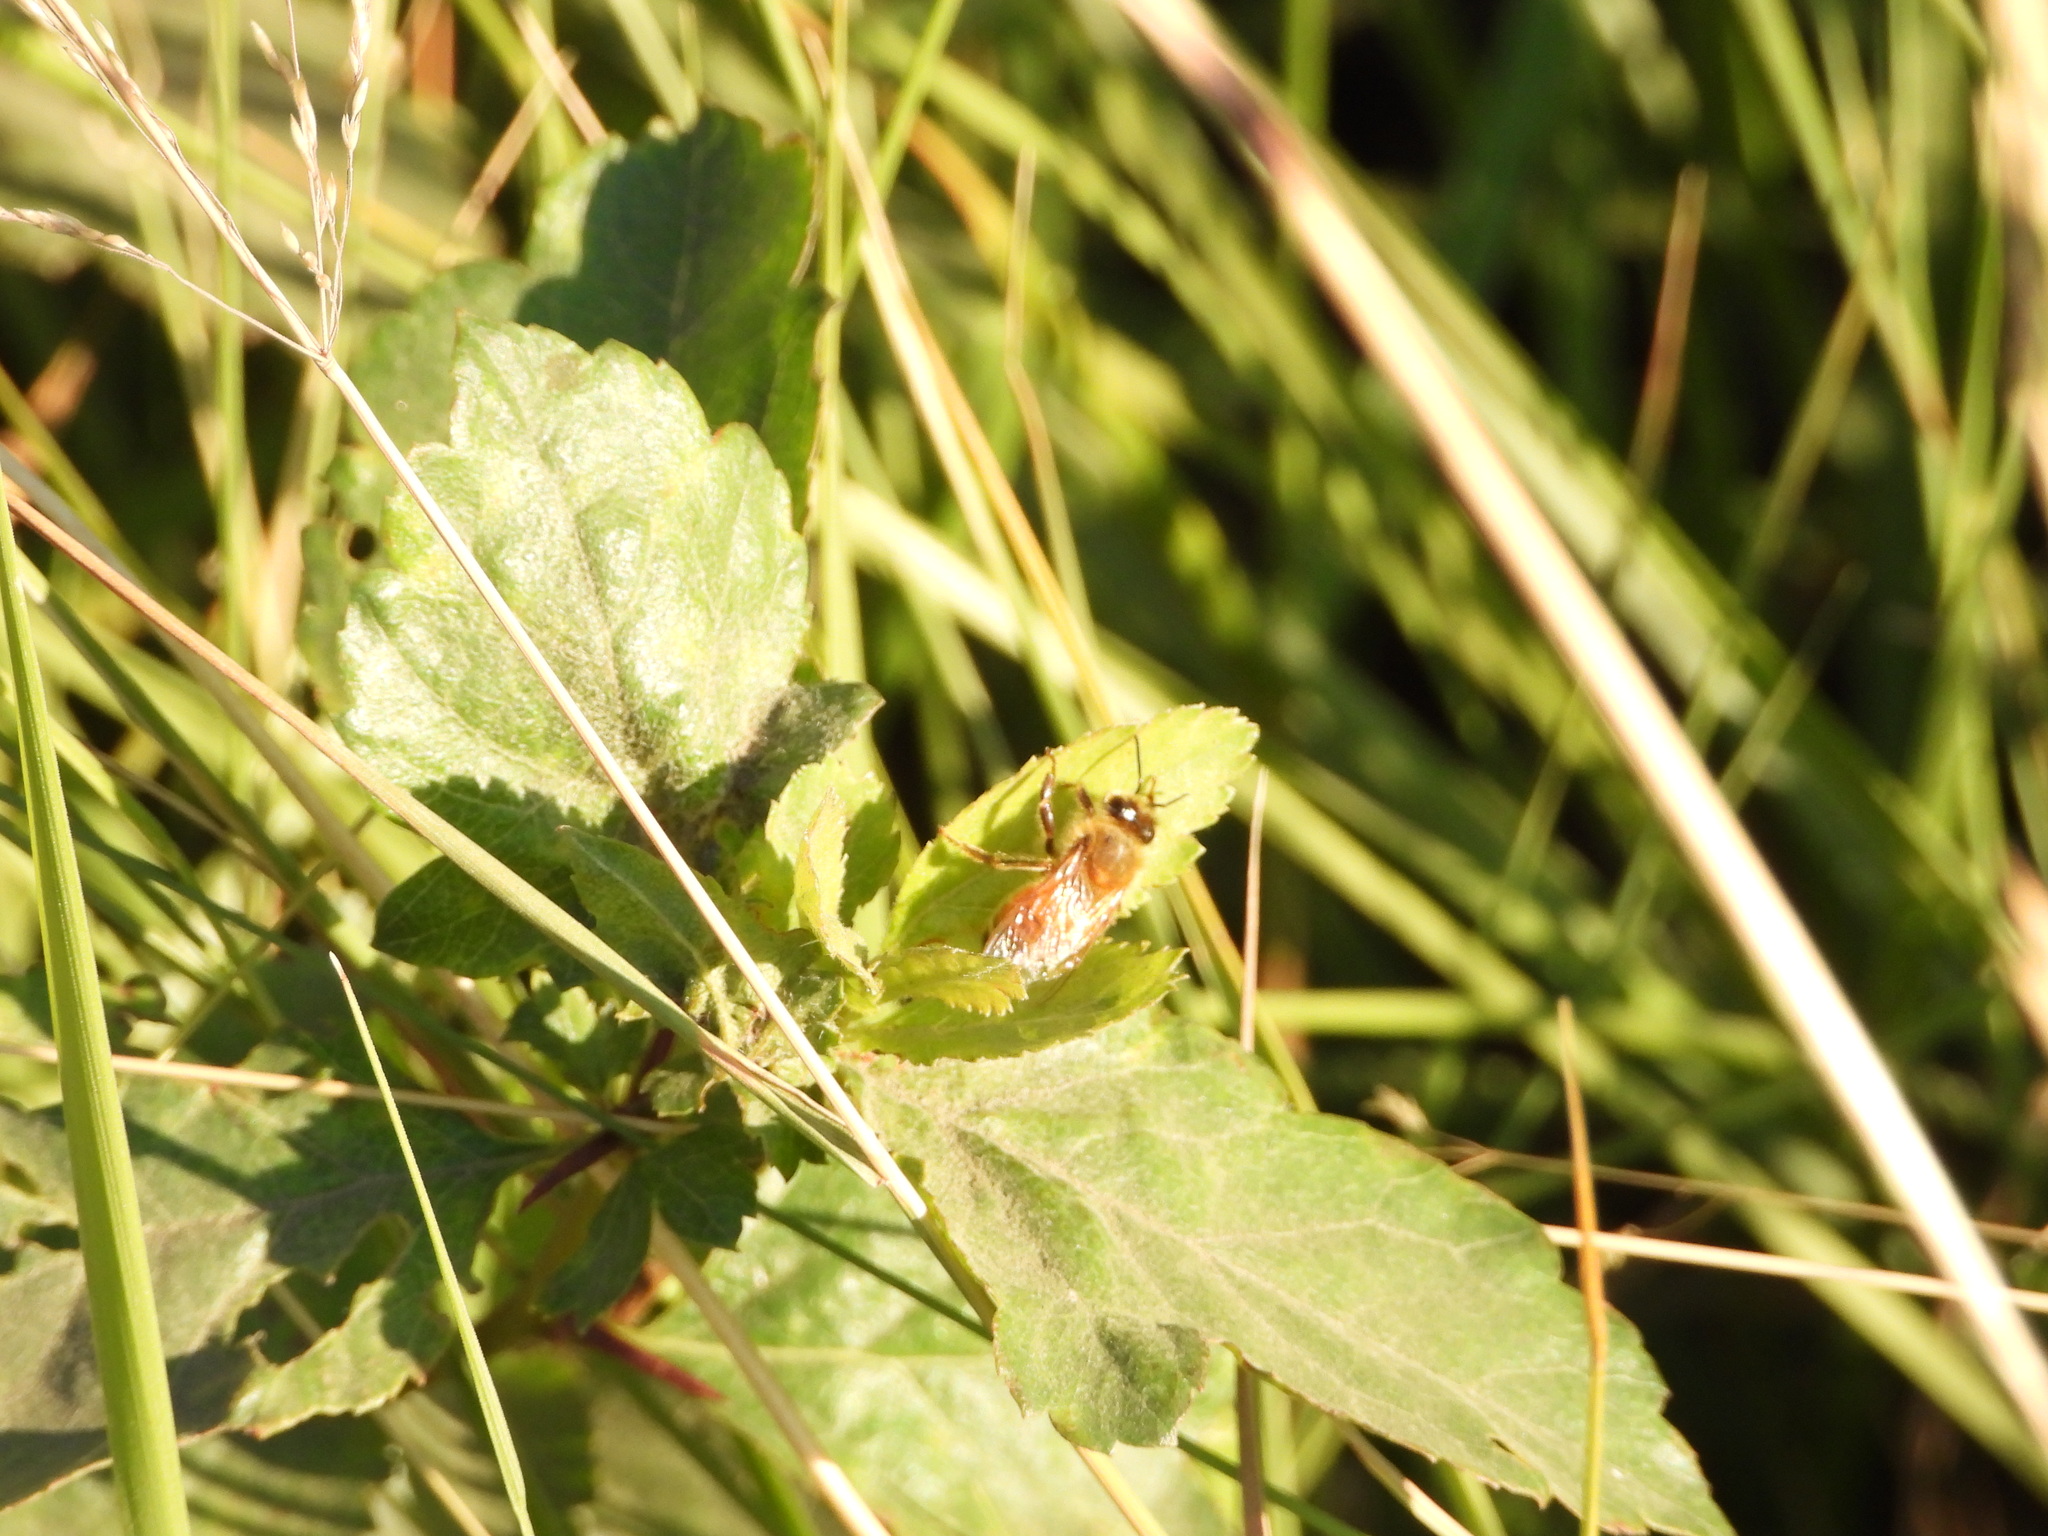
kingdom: Animalia
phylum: Arthropoda
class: Insecta
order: Hymenoptera
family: Apidae
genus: Apis
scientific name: Apis mellifera
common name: Honey bee
